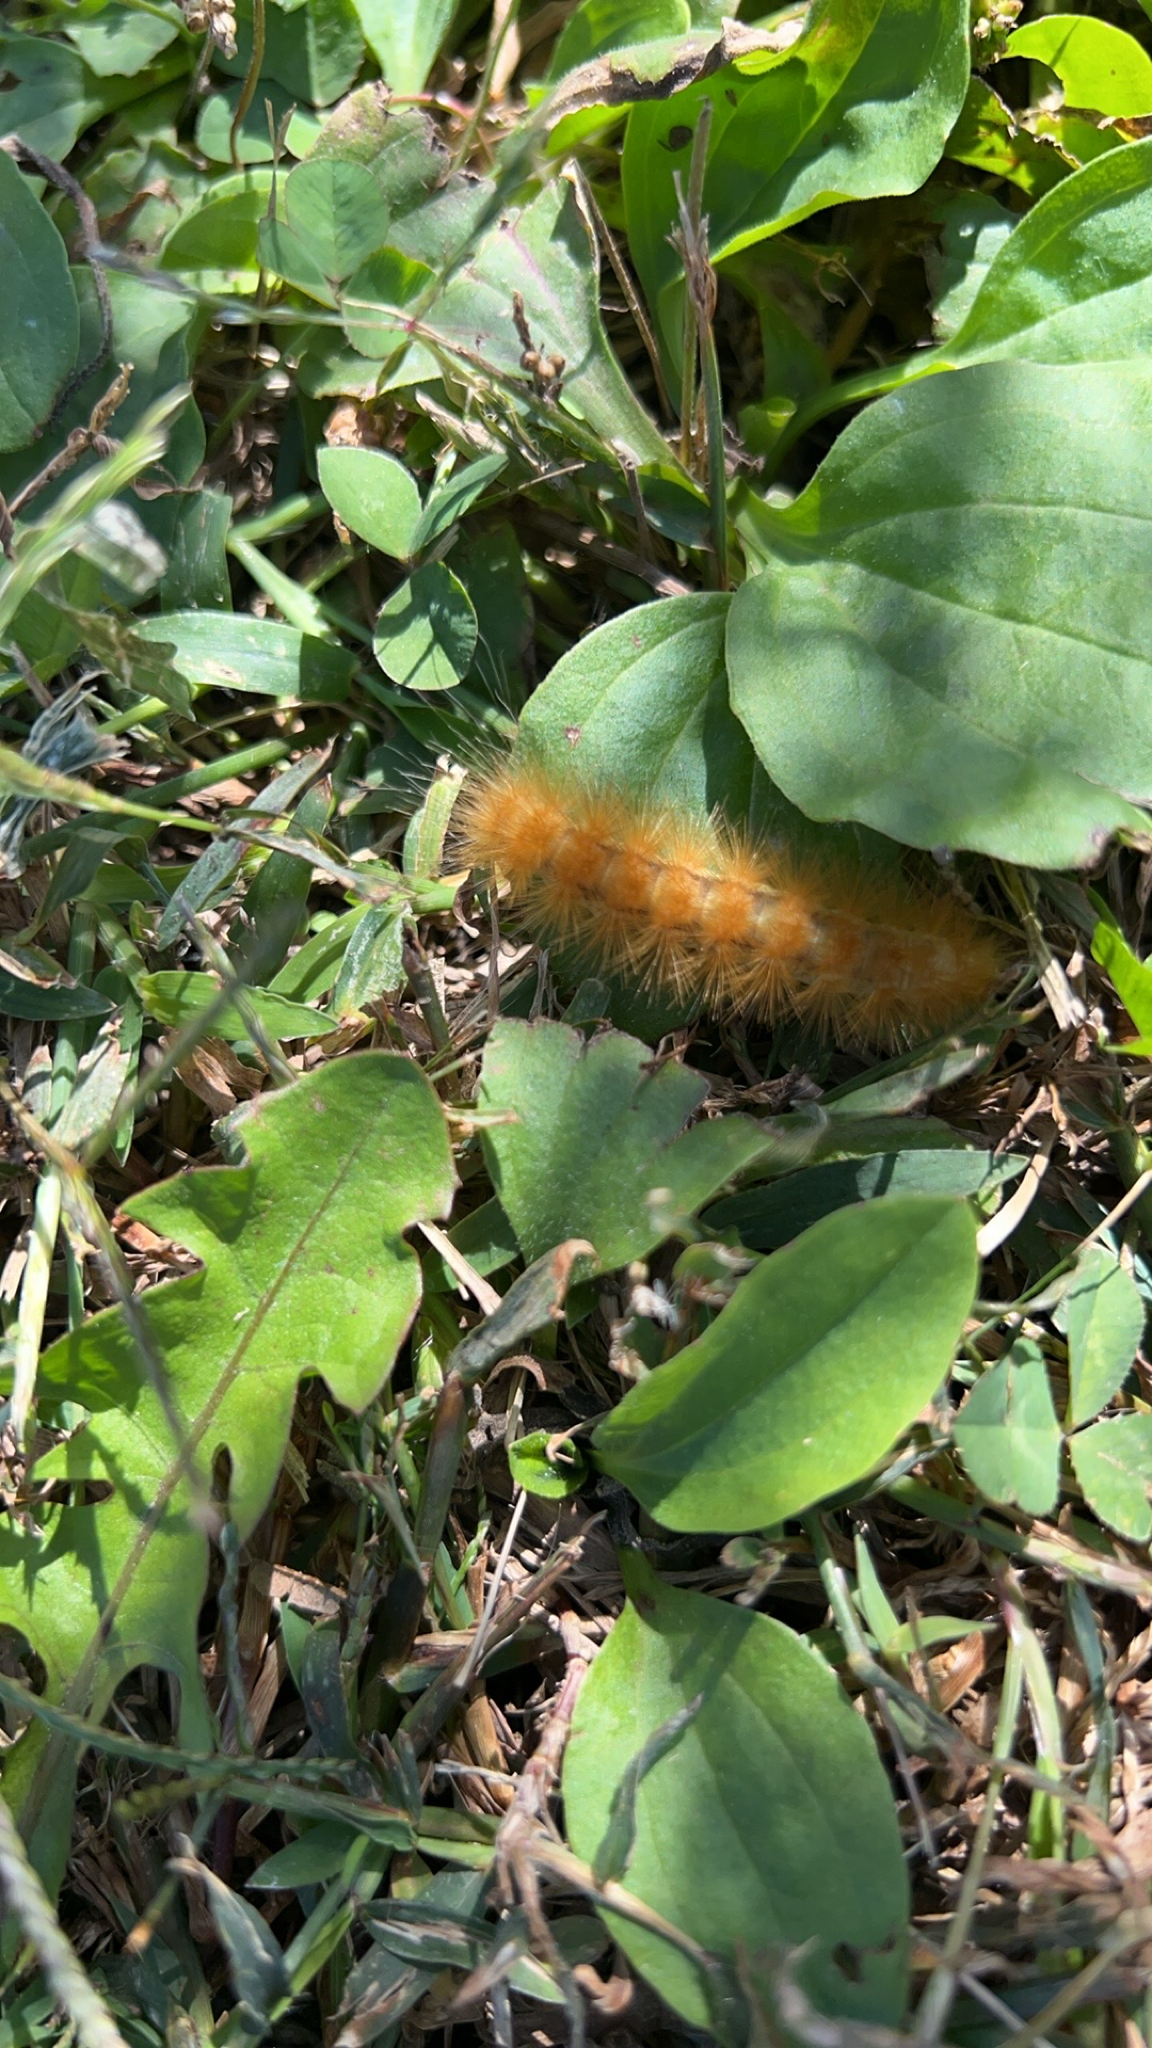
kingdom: Animalia
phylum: Arthropoda
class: Insecta
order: Lepidoptera
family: Erebidae
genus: Spilosoma
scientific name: Spilosoma virginica
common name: Virginia tiger moth
